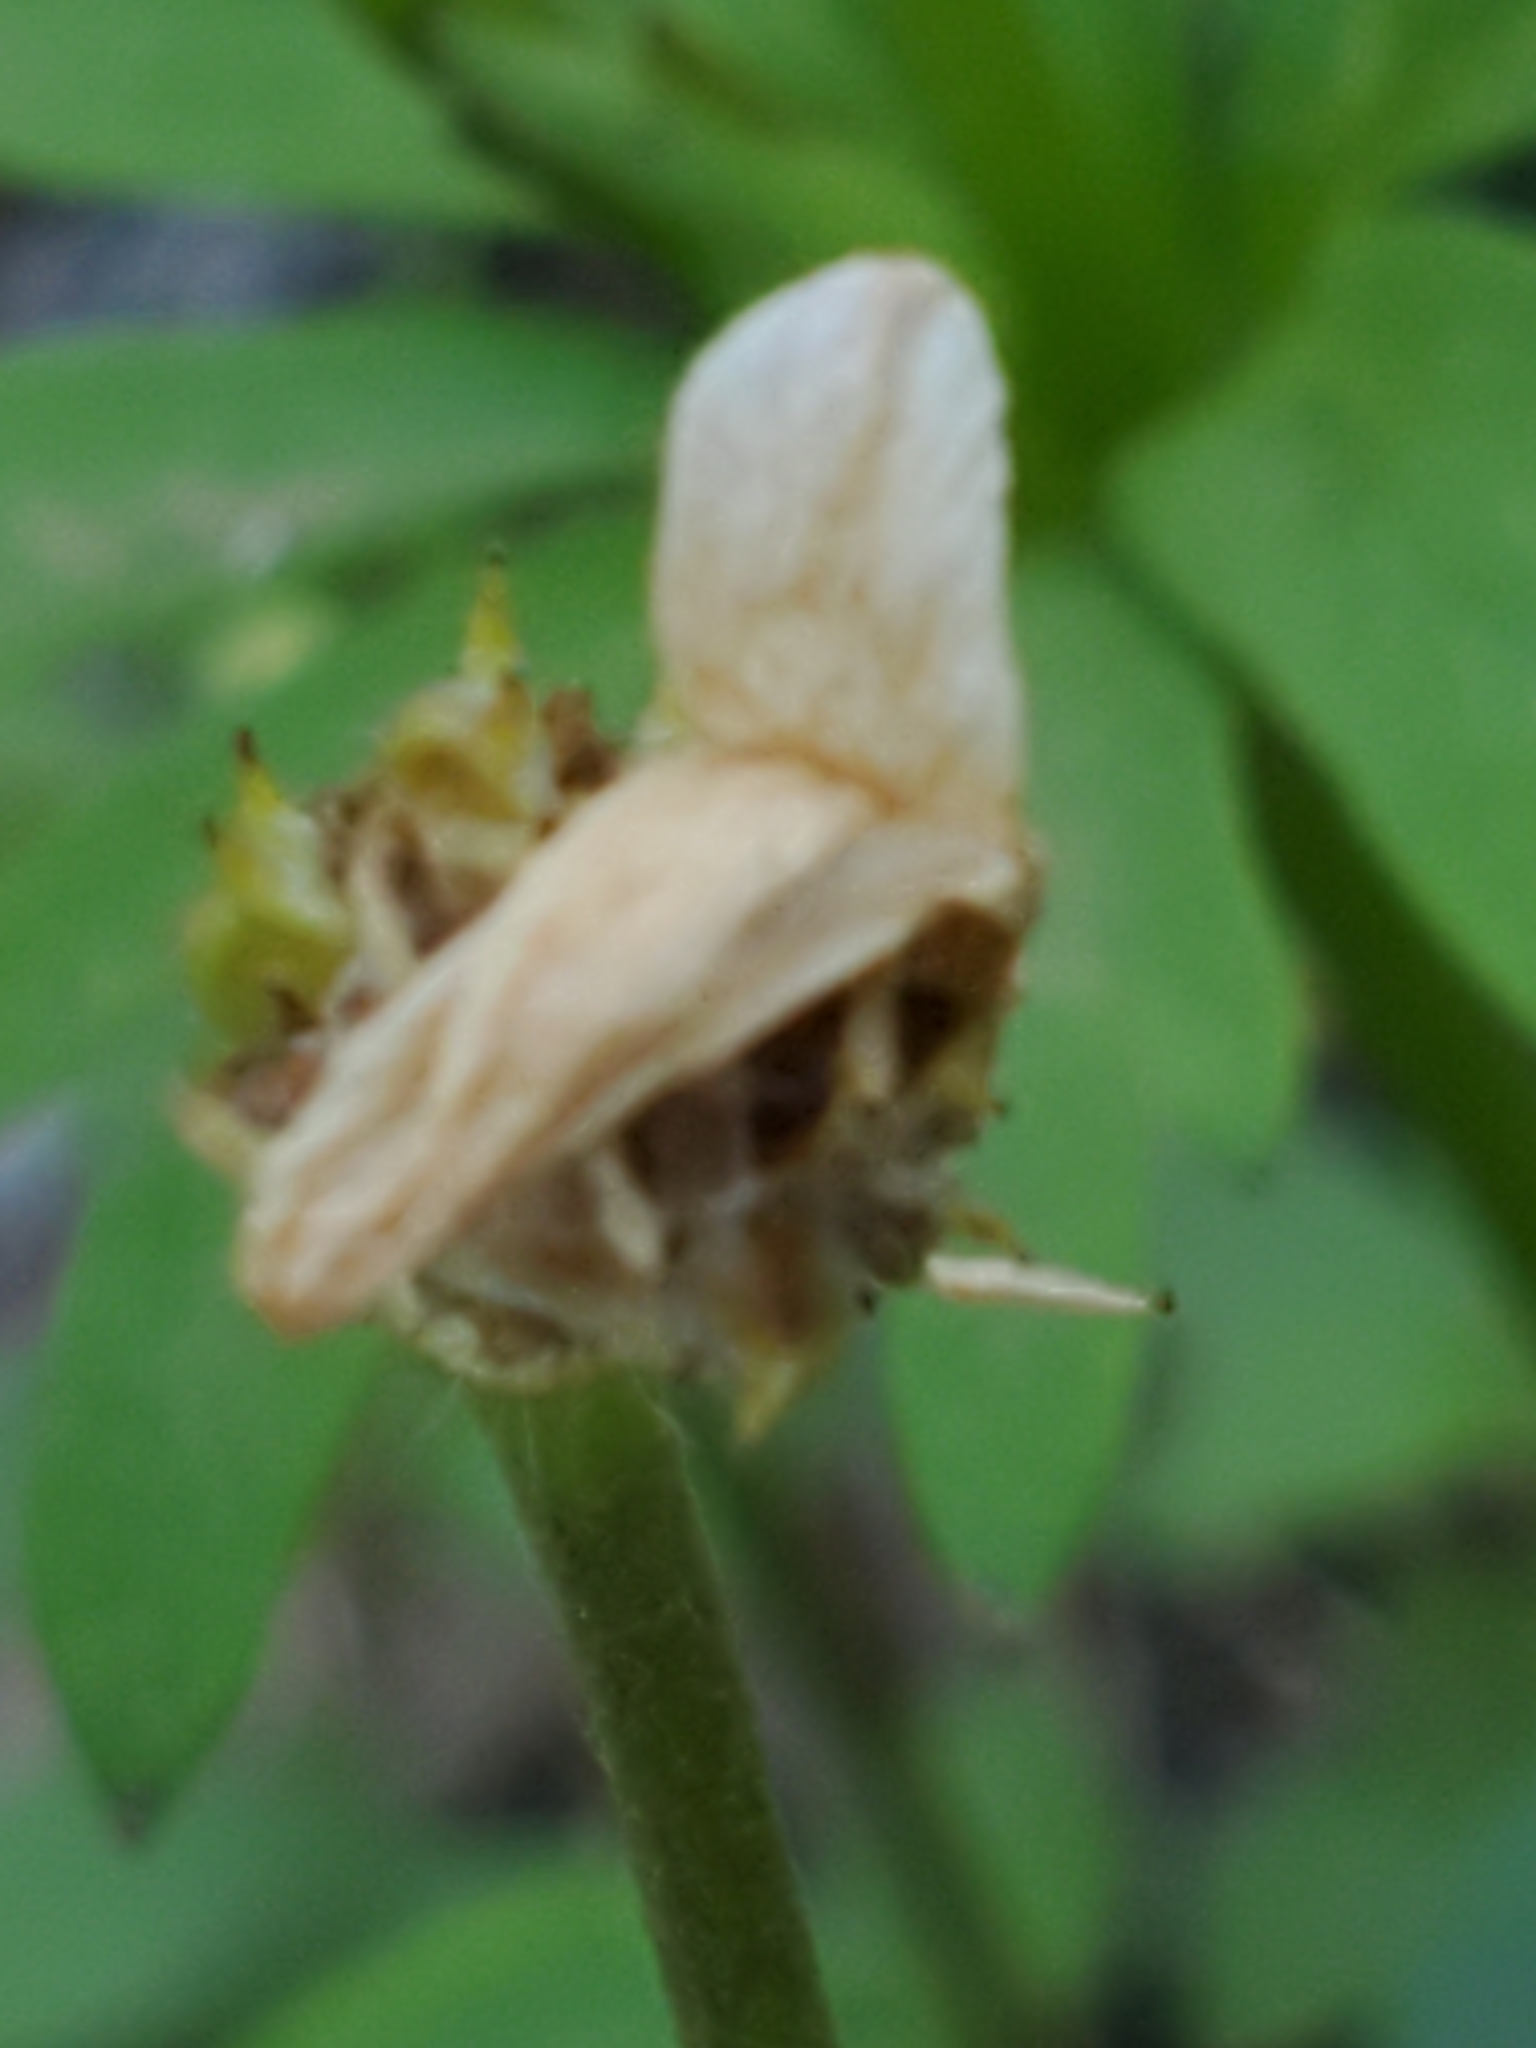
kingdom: Plantae
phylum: Tracheophyta
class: Magnoliopsida
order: Ranunculales
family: Ranunculaceae
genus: Anemone
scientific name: Anemone edwardsiana
